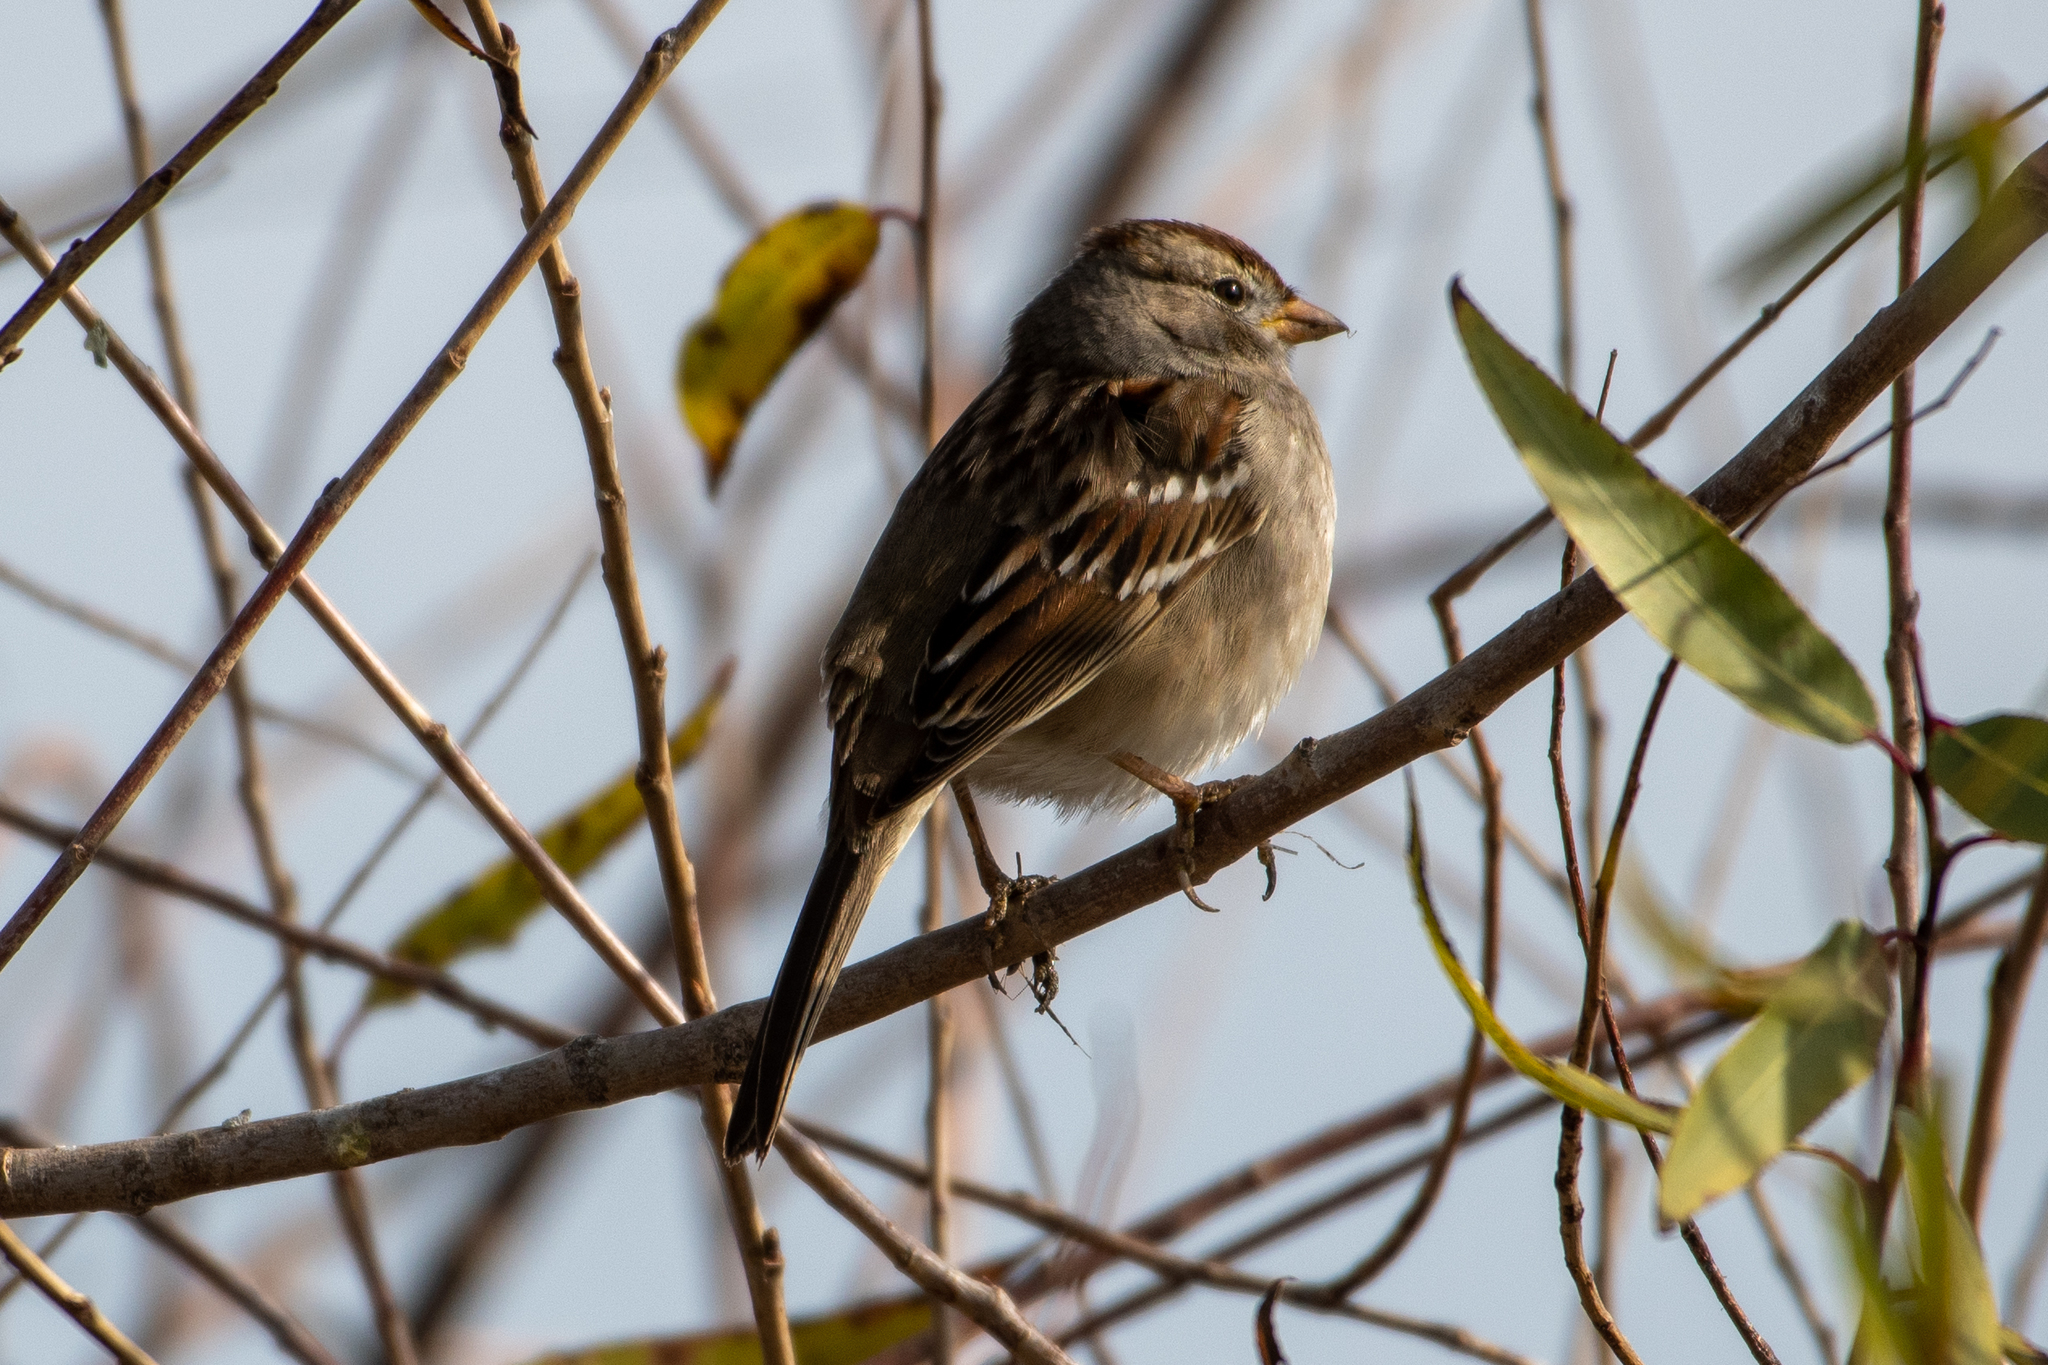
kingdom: Animalia
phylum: Chordata
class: Aves
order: Passeriformes
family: Passerellidae
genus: Zonotrichia
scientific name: Zonotrichia leucophrys
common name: White-crowned sparrow
